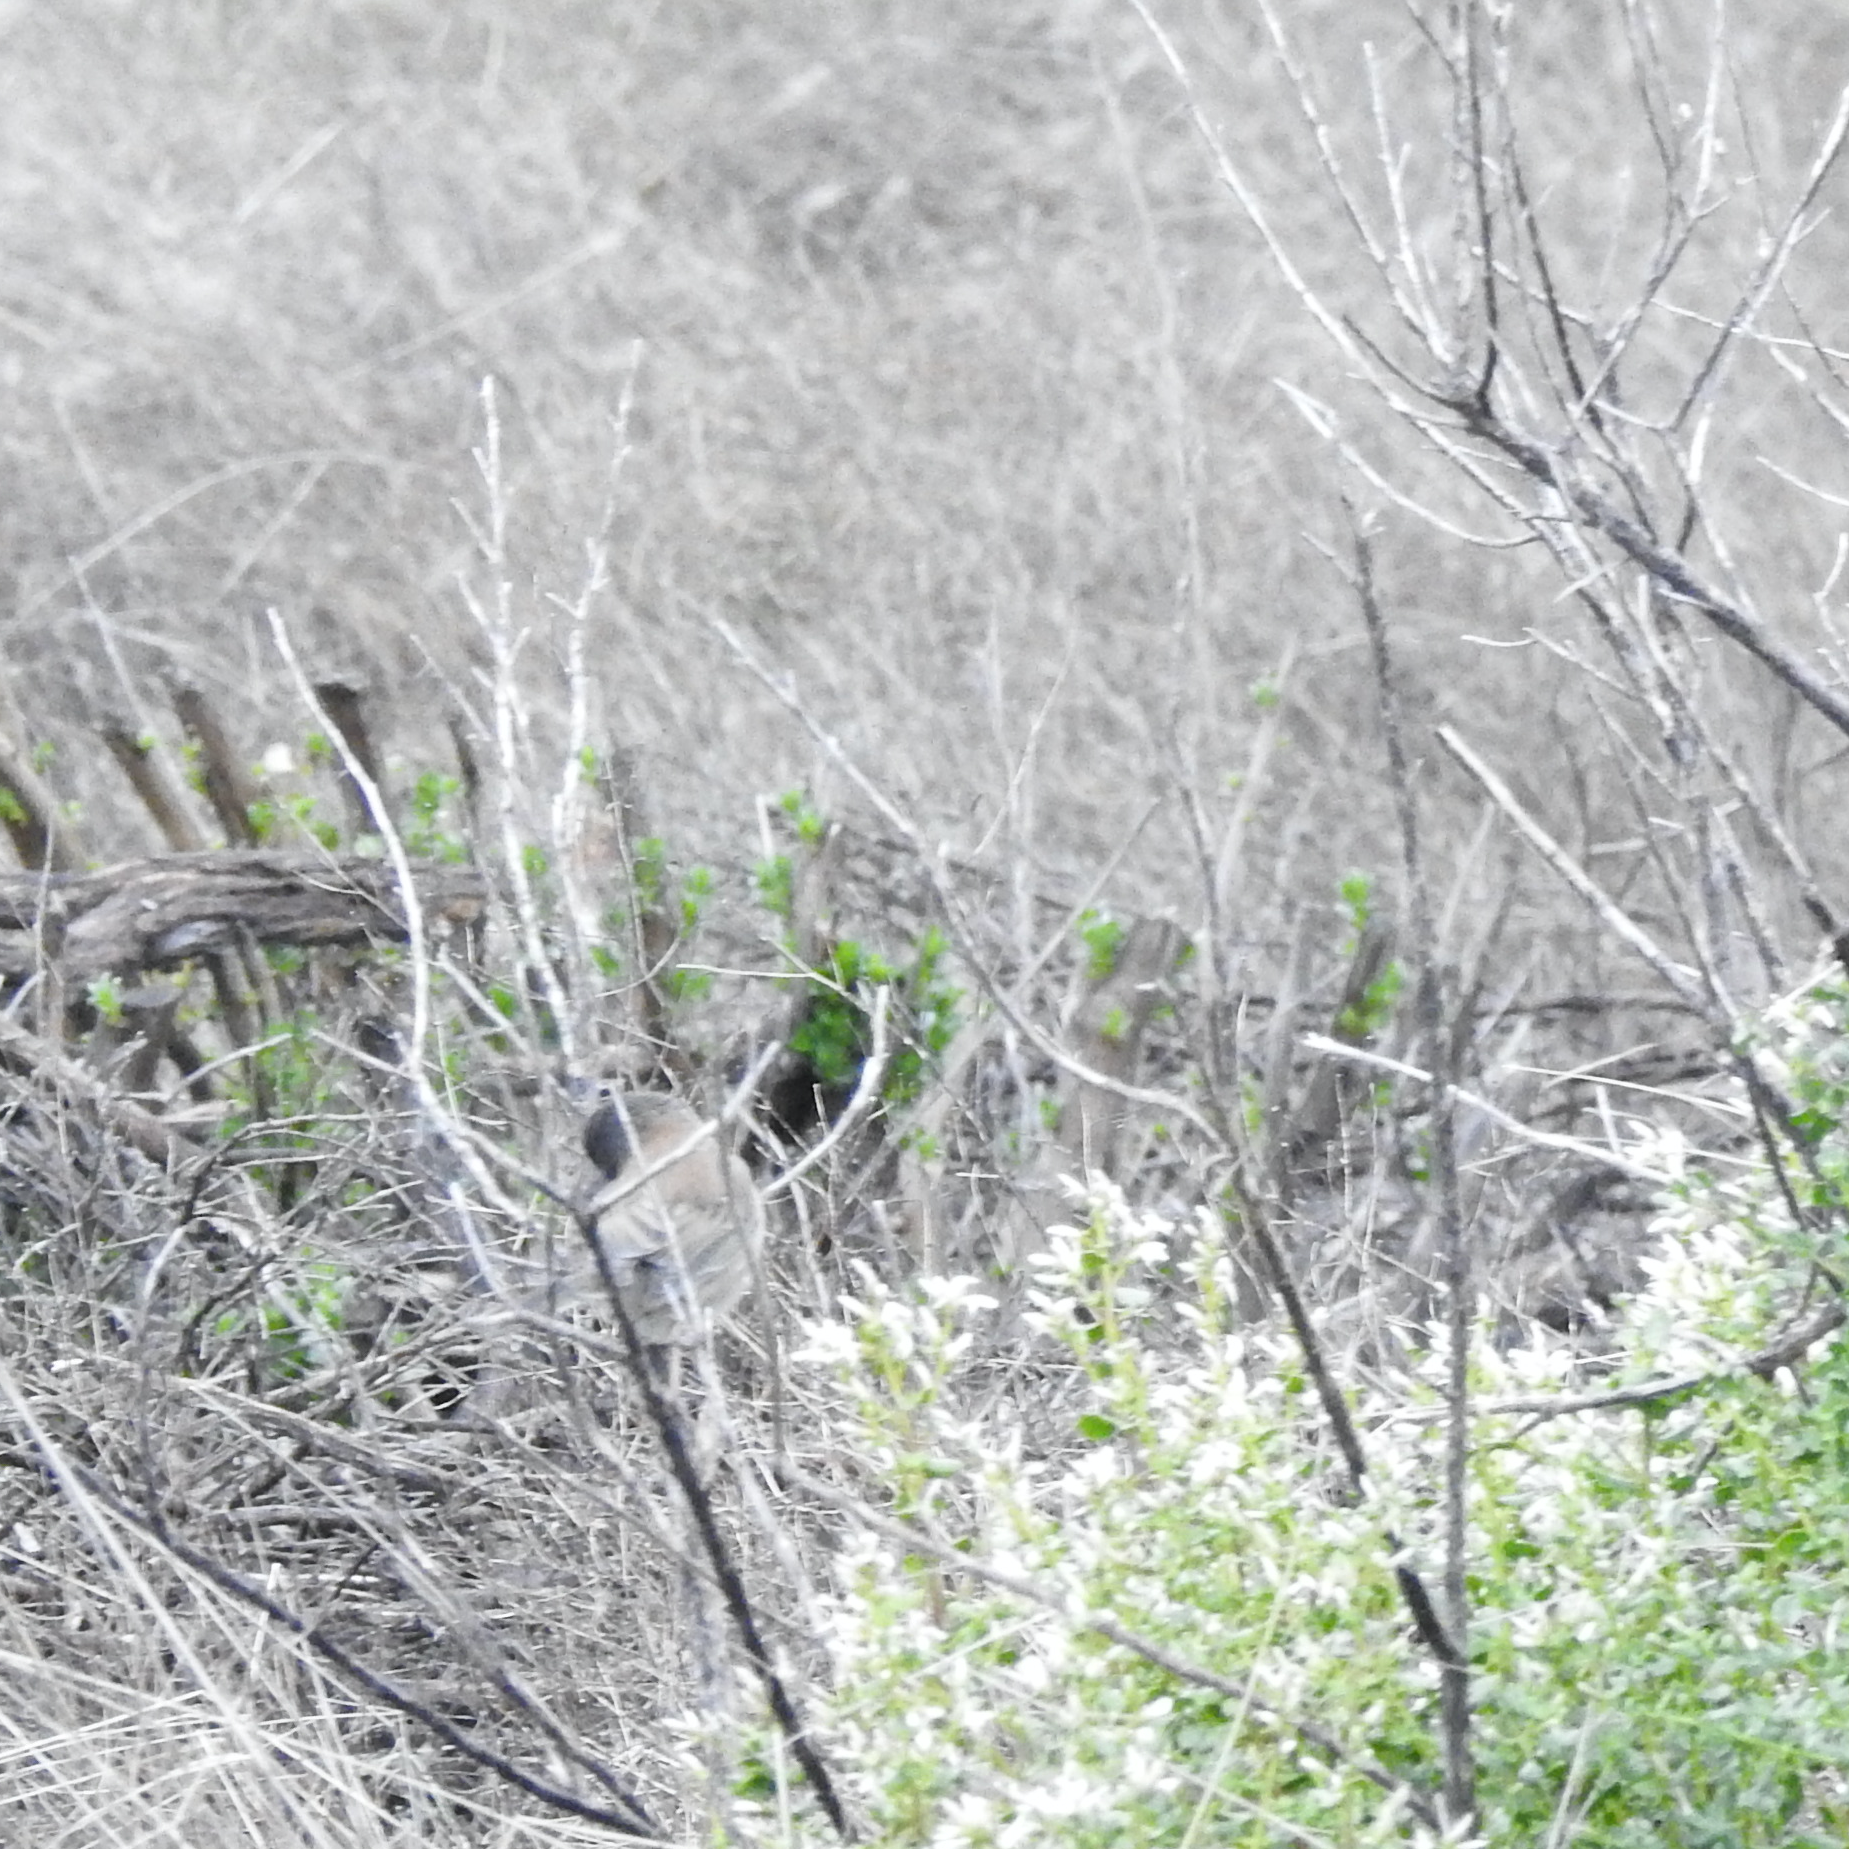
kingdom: Animalia
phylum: Chordata
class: Aves
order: Passeriformes
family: Passerellidae
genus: Junco
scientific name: Junco hyemalis
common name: Dark-eyed junco
